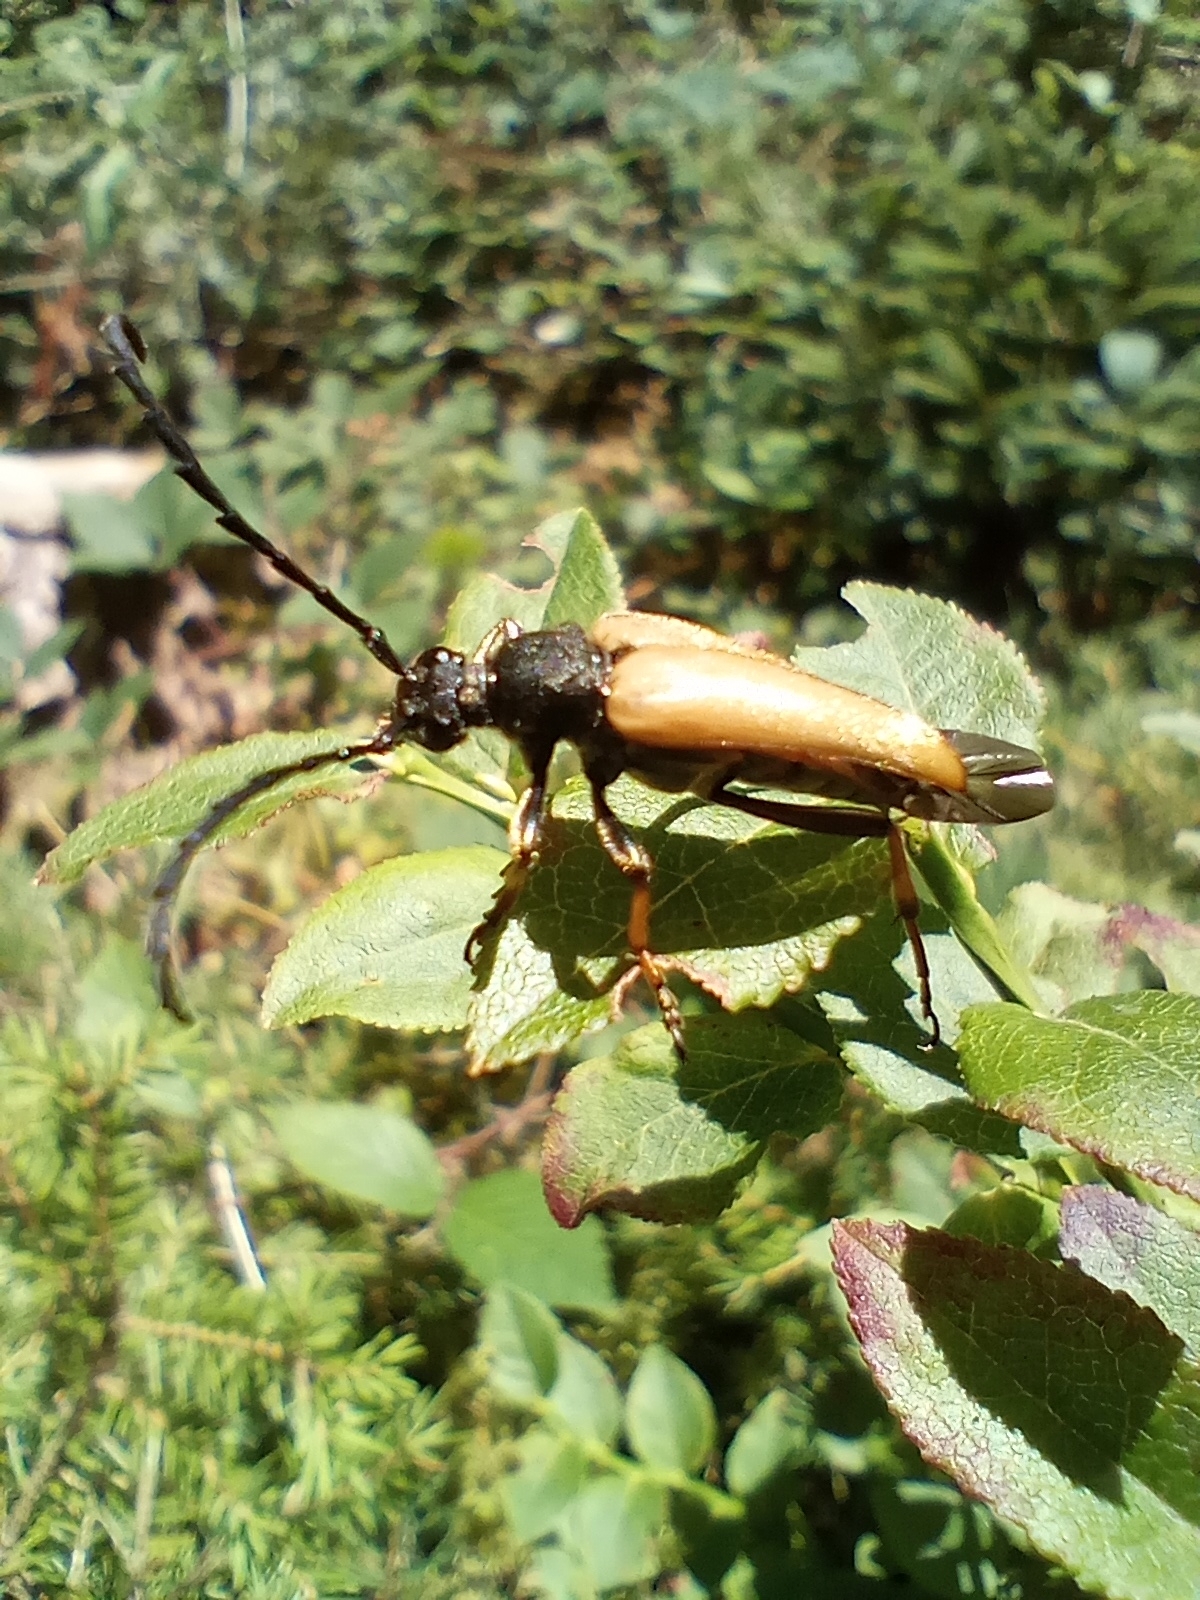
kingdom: Animalia
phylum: Arthropoda
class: Insecta
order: Coleoptera
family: Cerambycidae
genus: Stictoleptura
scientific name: Stictoleptura rubra
